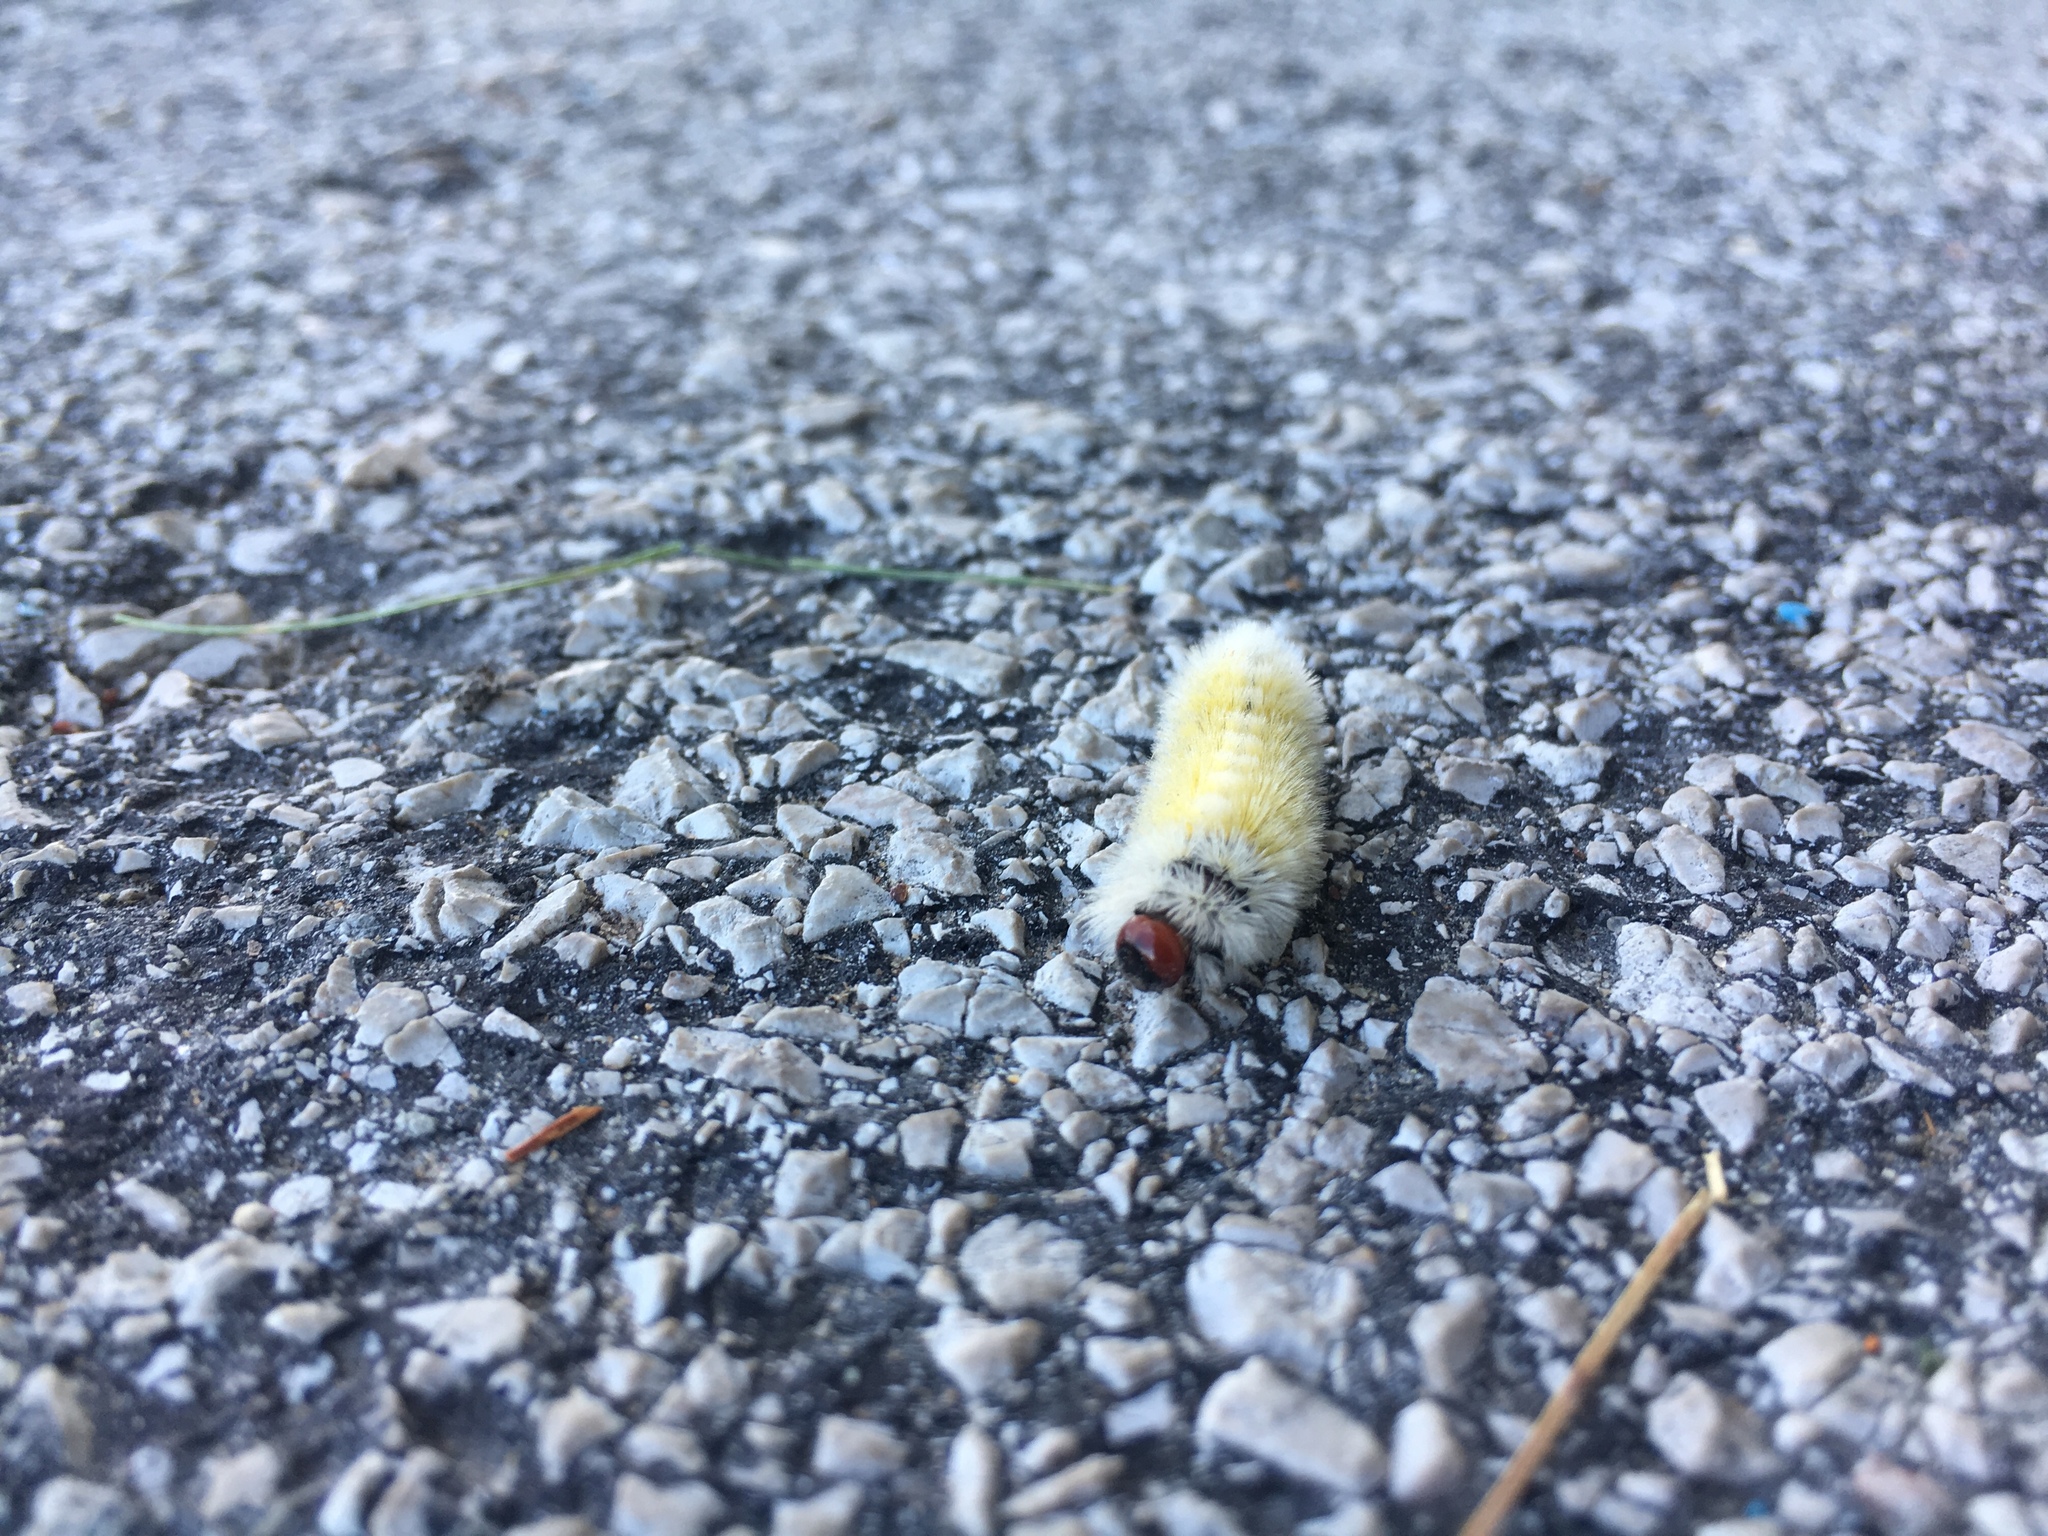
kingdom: Animalia
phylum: Arthropoda
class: Insecta
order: Lepidoptera
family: Erebidae
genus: Ctenucha
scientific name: Ctenucha virginica
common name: Virginia ctenucha moth
